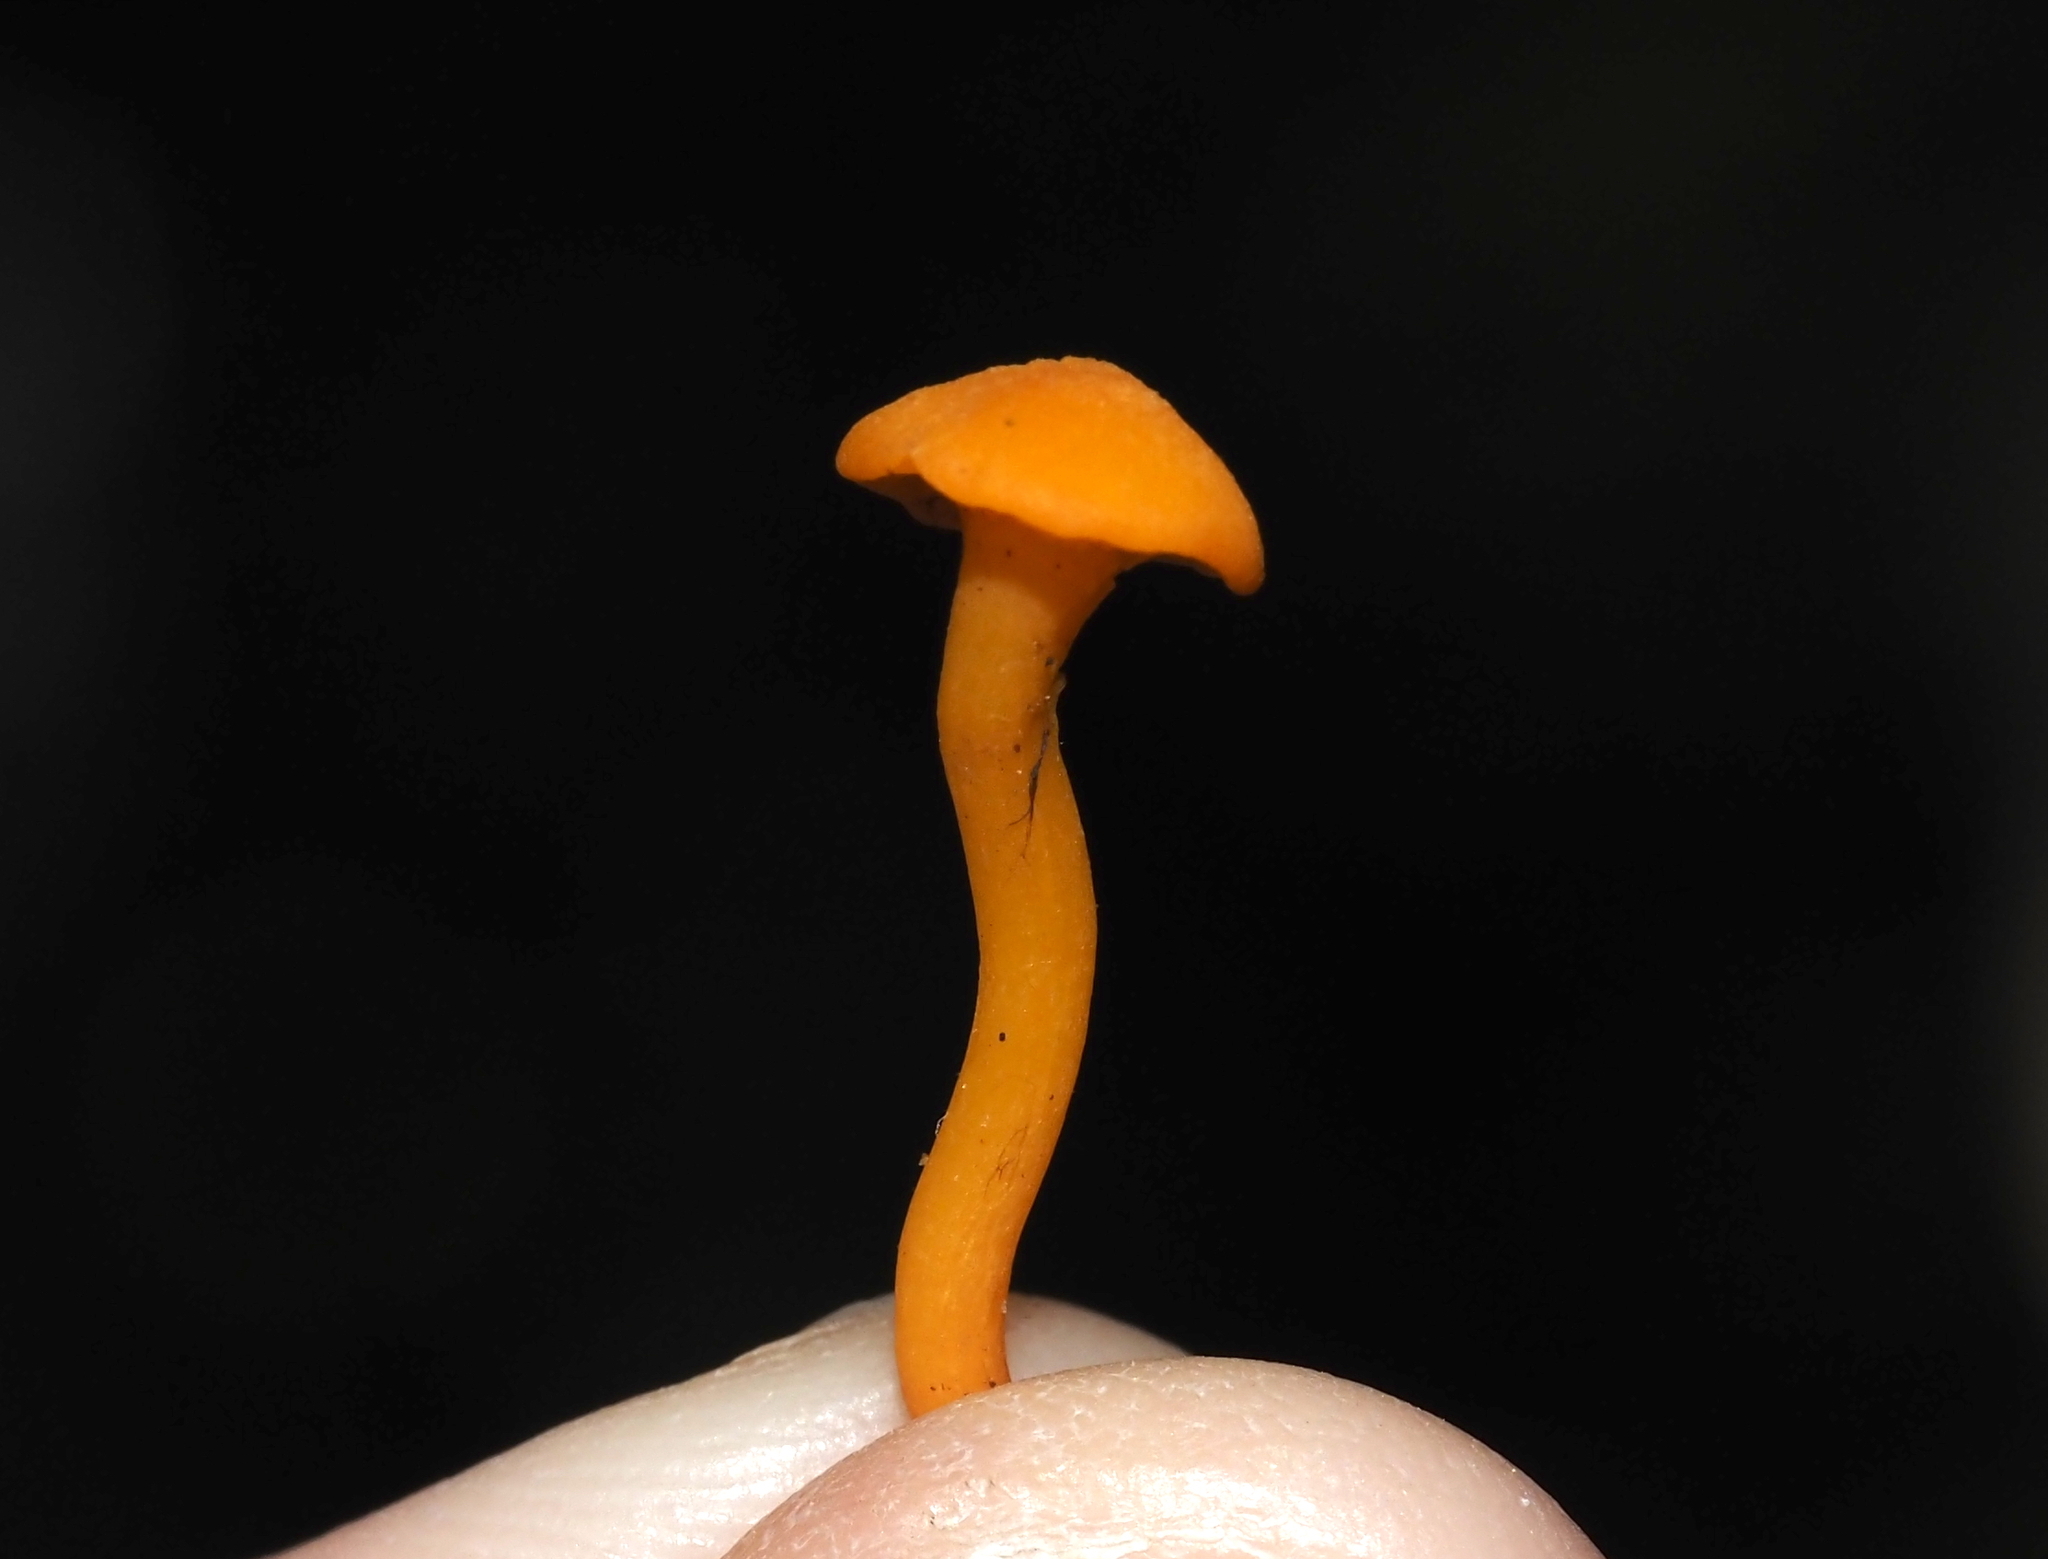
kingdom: Fungi
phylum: Basidiomycota
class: Agaricomycetes
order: Cantharellales
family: Hydnaceae
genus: Cantharellus
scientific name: Cantharellus minor
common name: Small chanterelle
